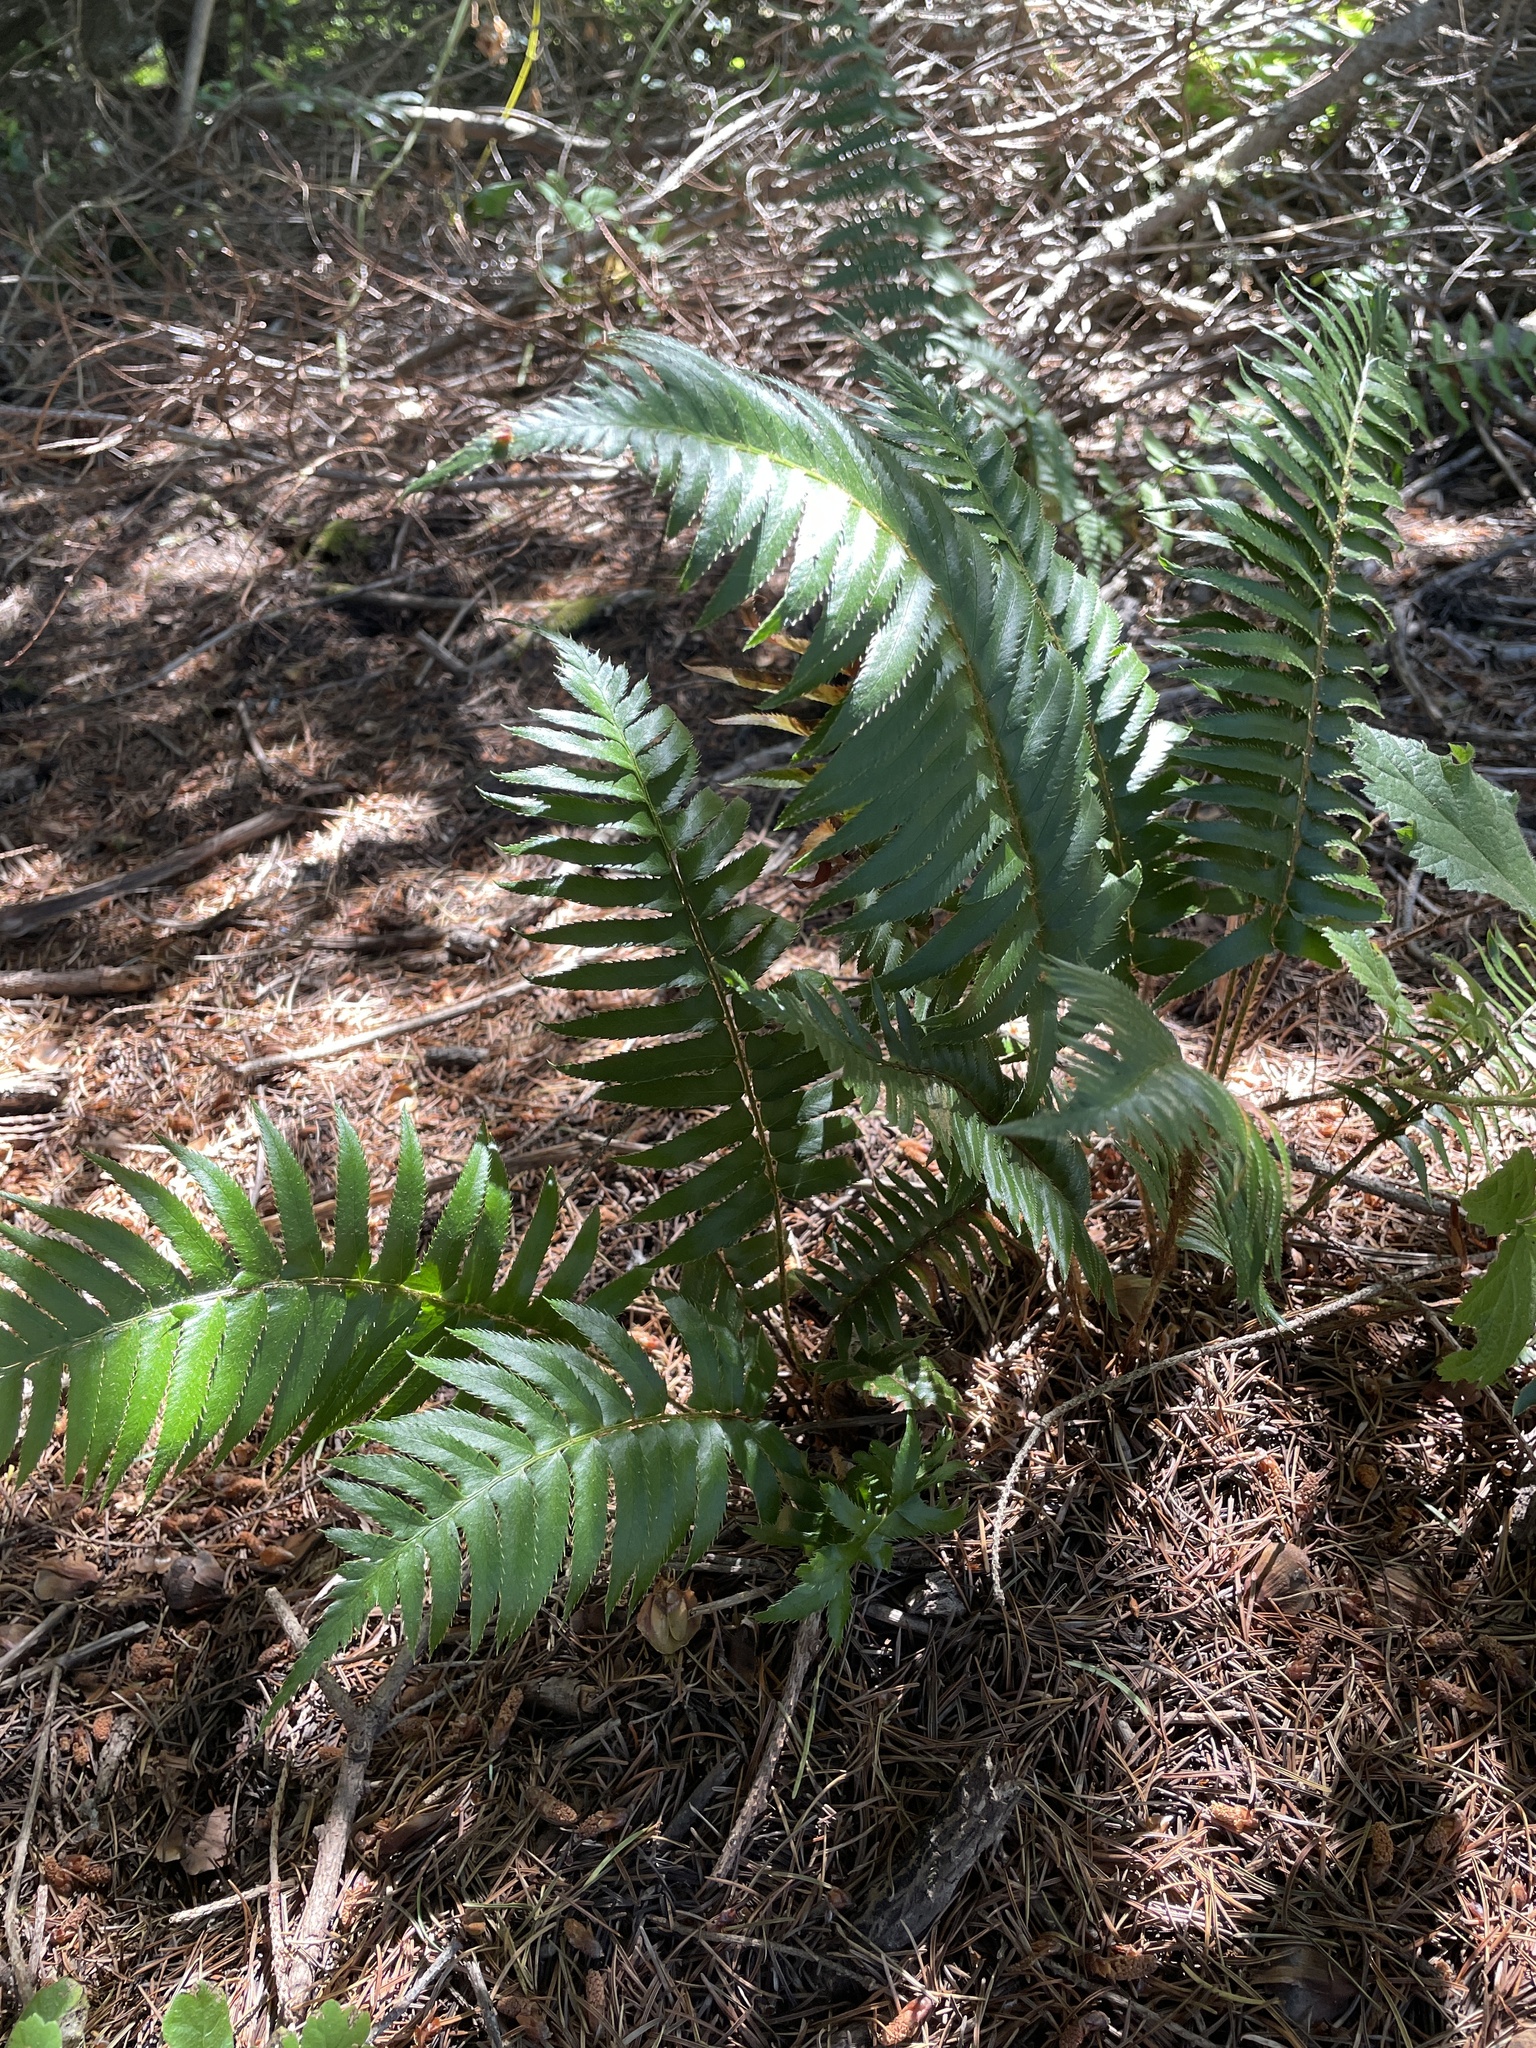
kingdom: Plantae
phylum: Tracheophyta
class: Polypodiopsida
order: Polypodiales
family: Dryopteridaceae
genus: Polystichum
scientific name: Polystichum munitum
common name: Western sword-fern
